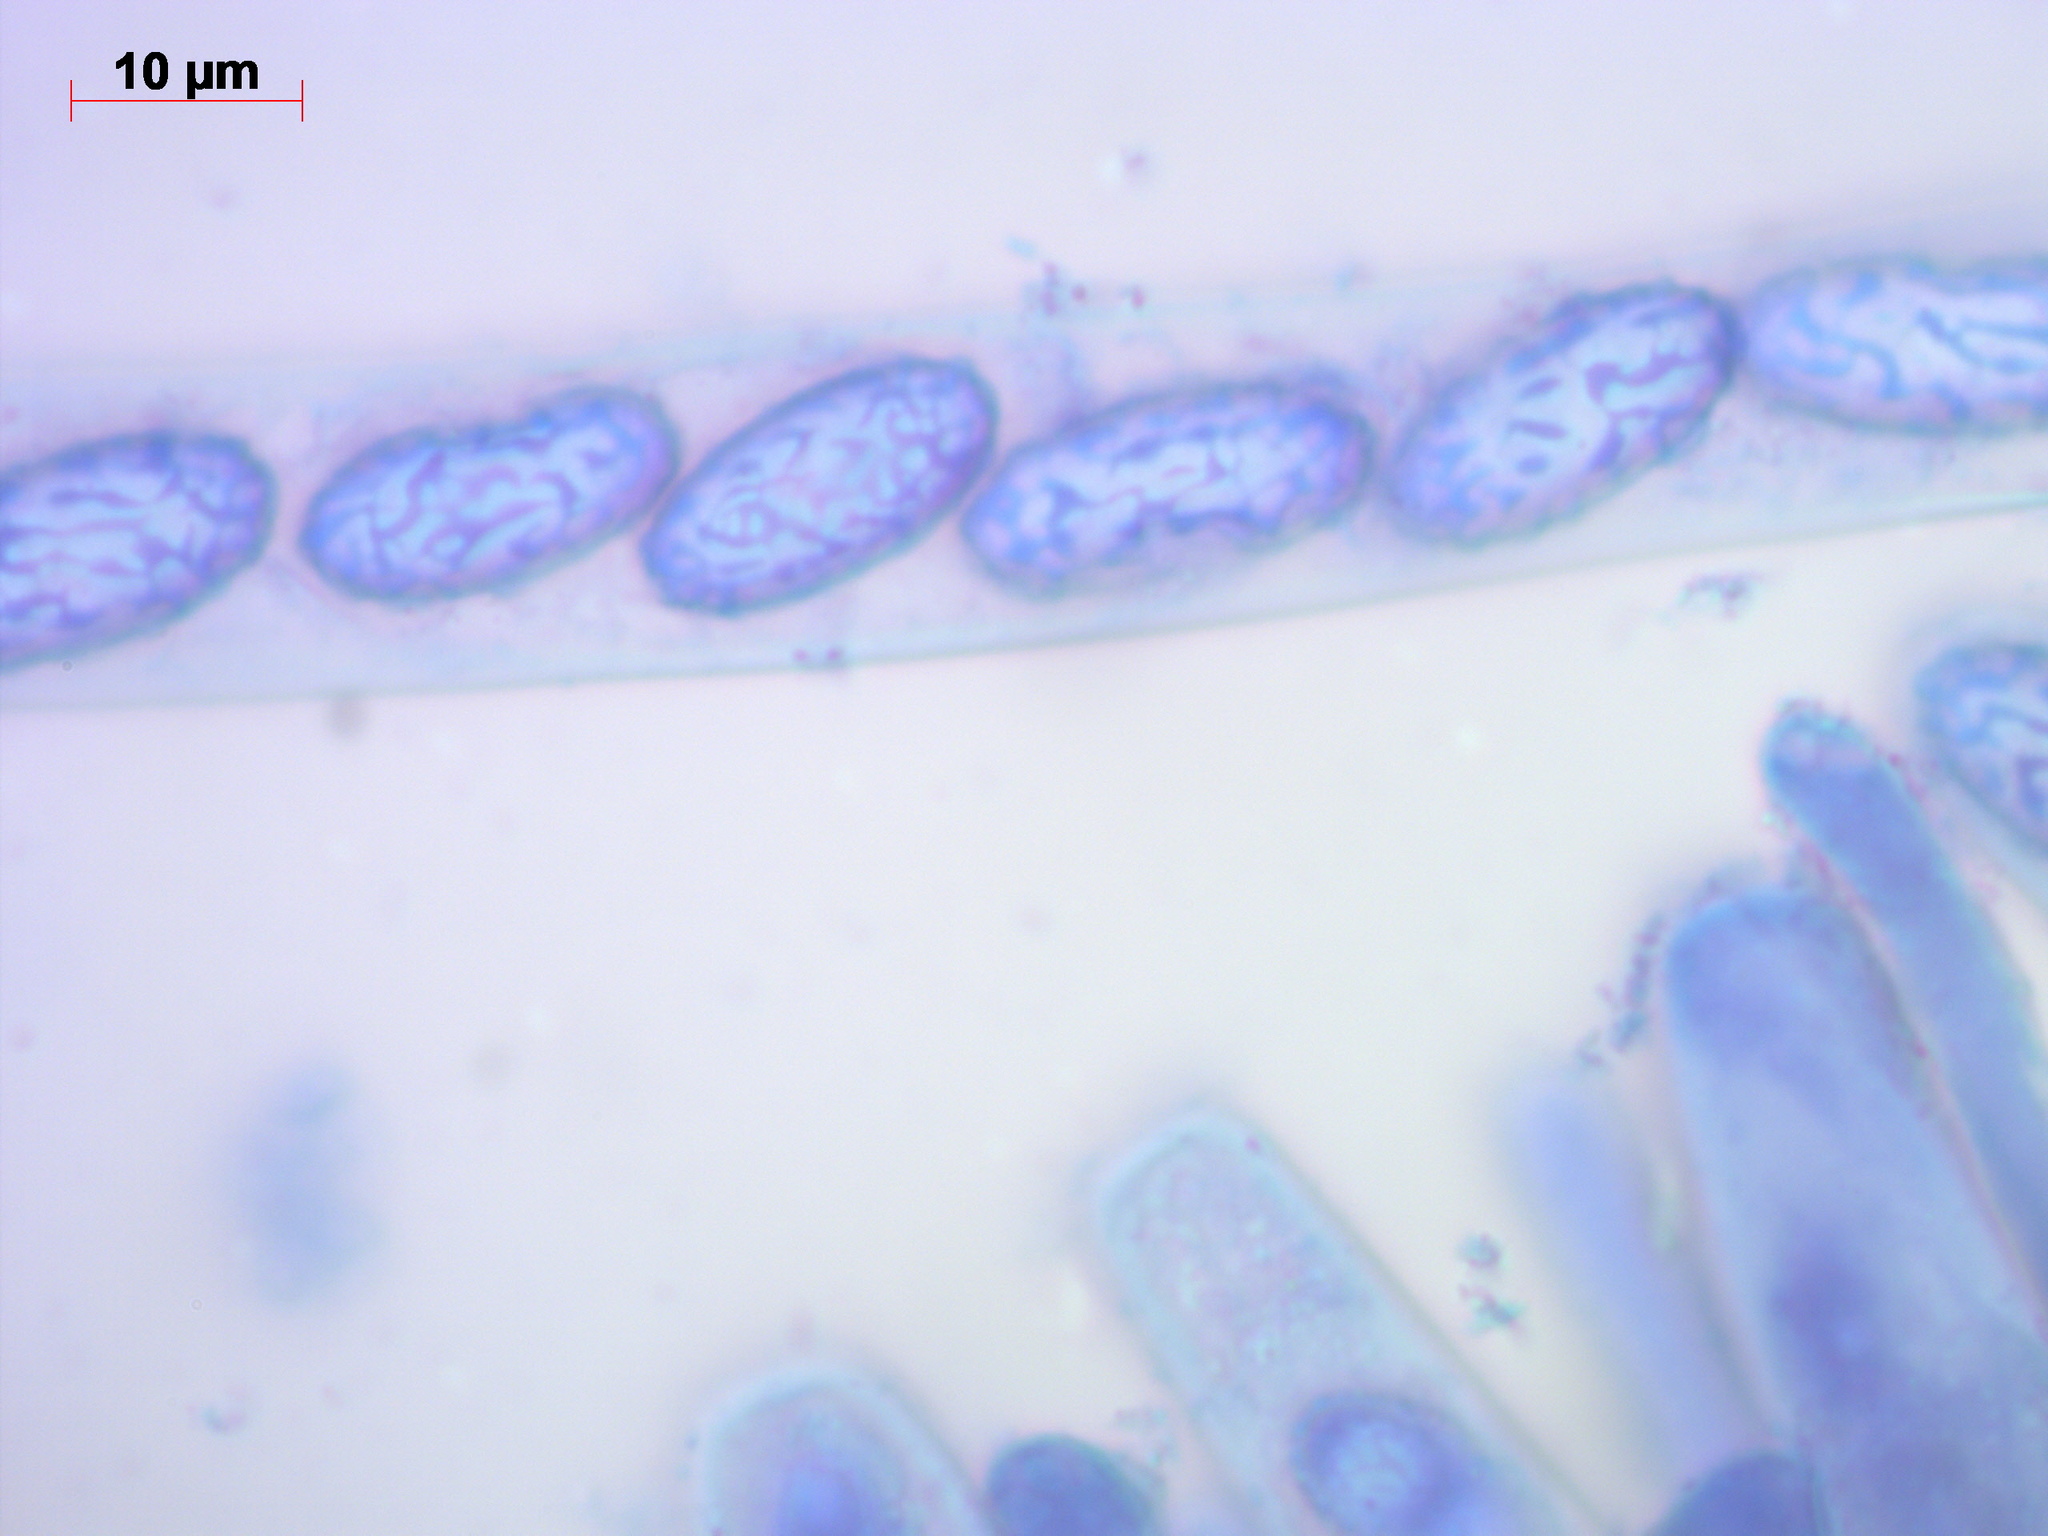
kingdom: Fungi
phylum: Ascomycota
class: Pezizomycetes
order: Pezizales
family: Pezizaceae
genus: Legaliana
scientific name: Legaliana badia
